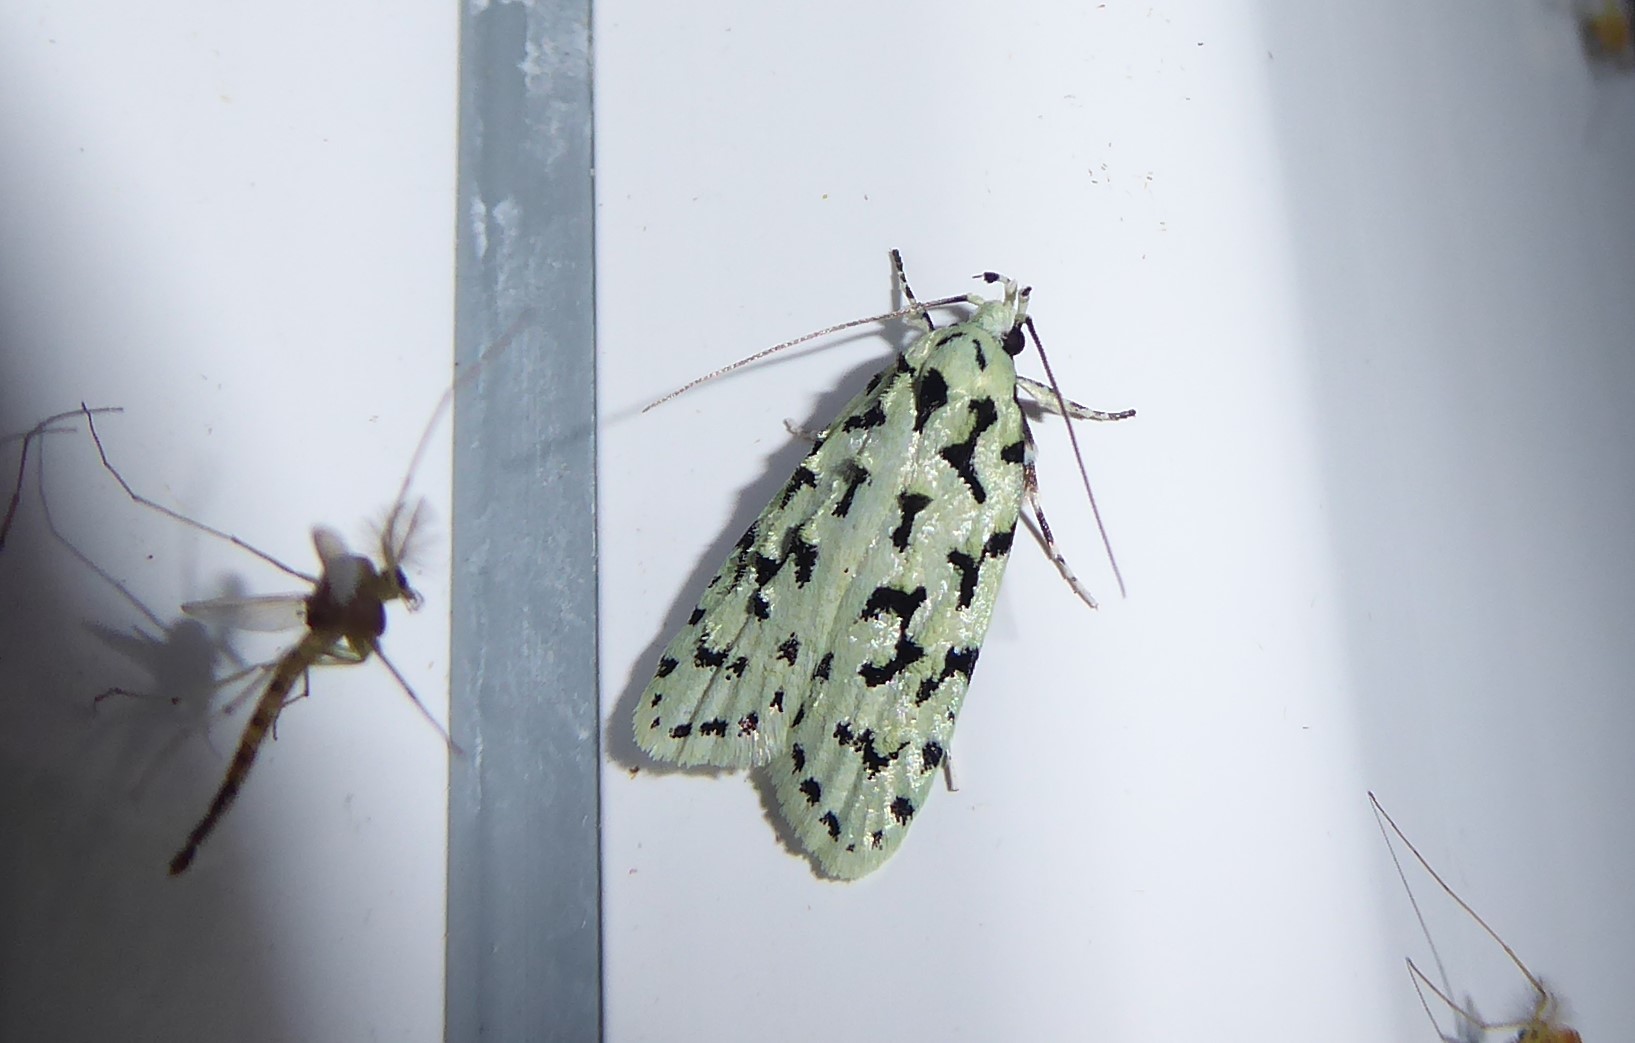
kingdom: Animalia
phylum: Arthropoda
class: Insecta
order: Lepidoptera
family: Oecophoridae
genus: Izatha
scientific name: Izatha huttoni
